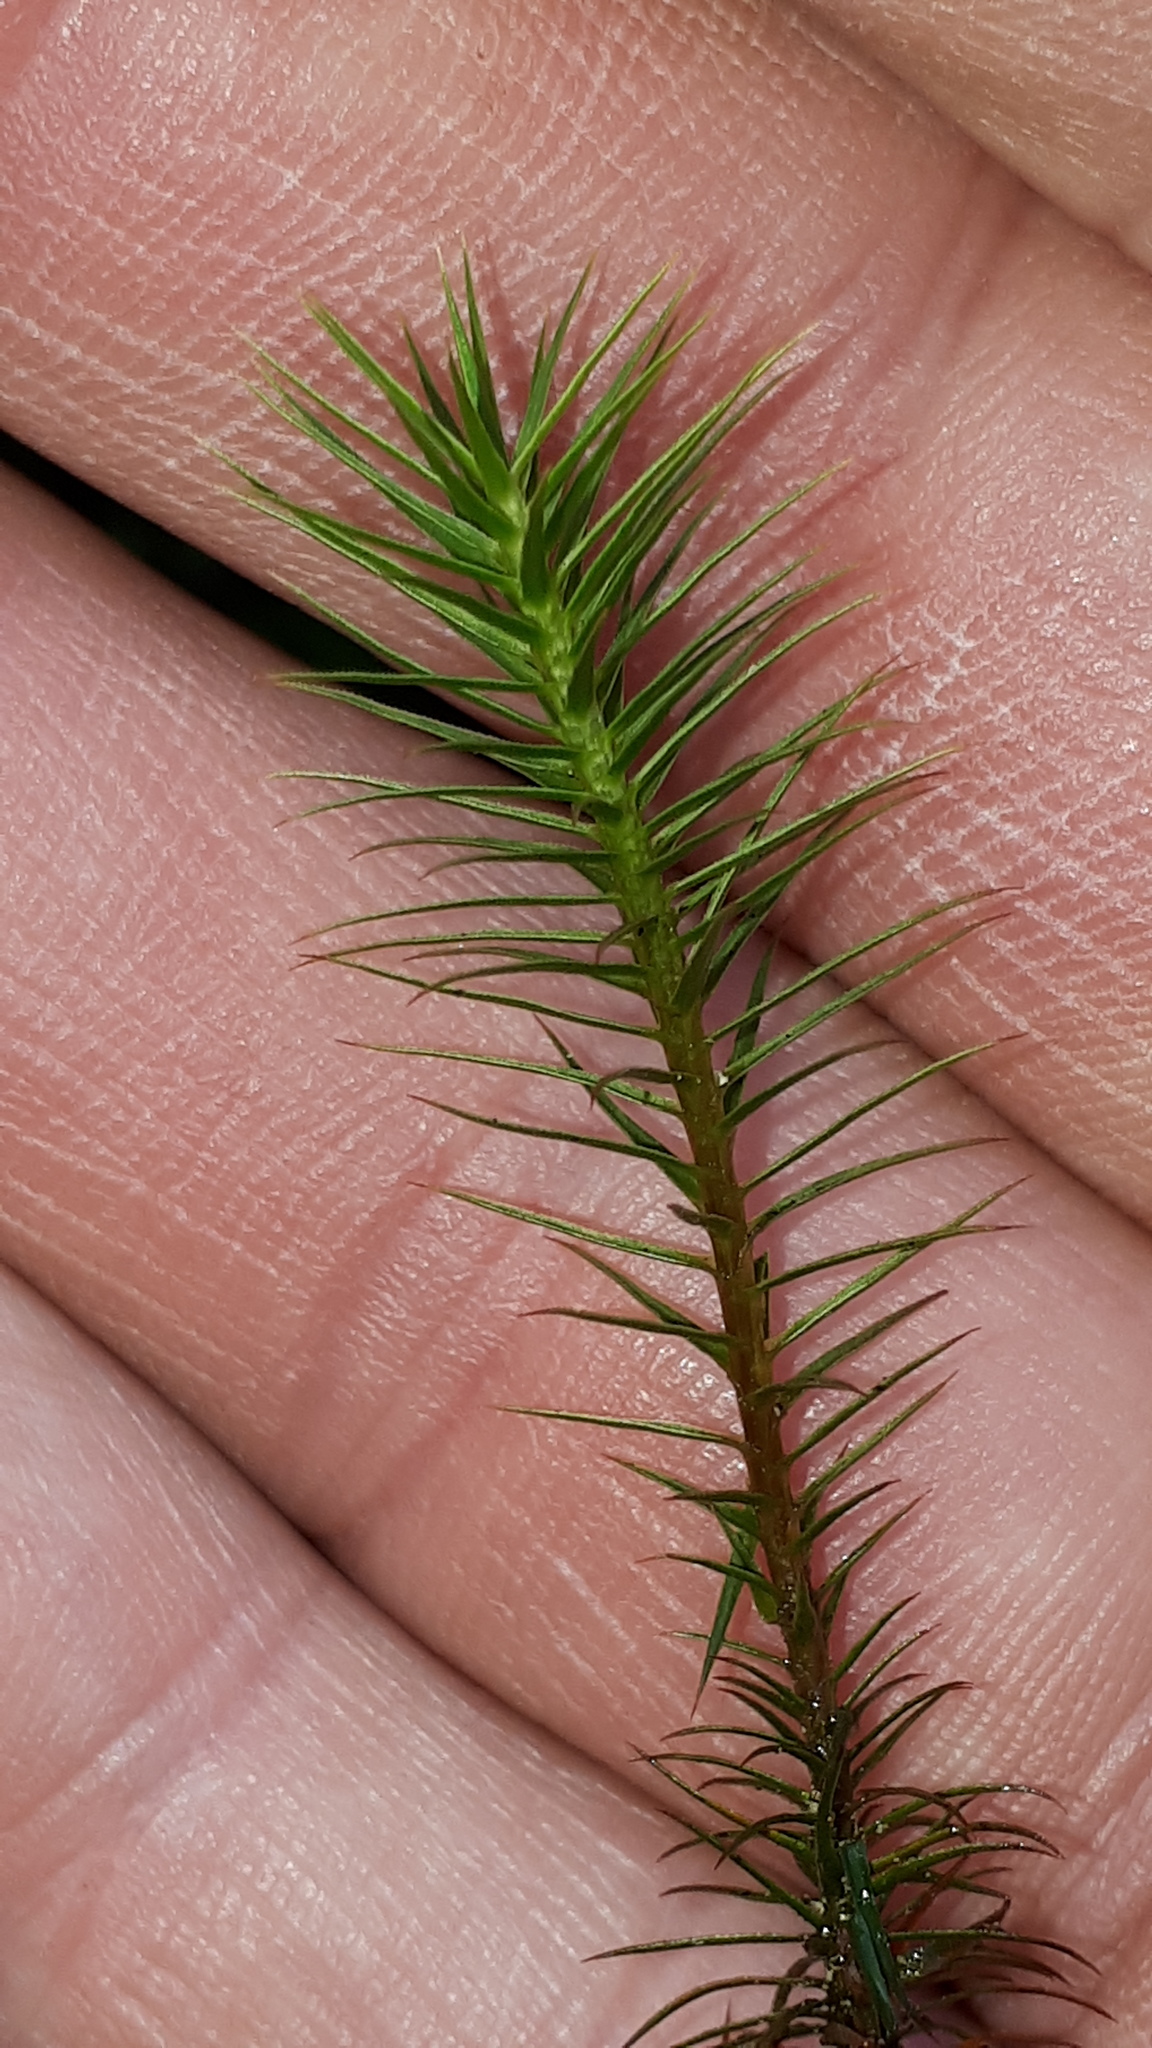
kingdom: Plantae
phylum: Bryophyta
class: Polytrichopsida
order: Polytrichales
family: Polytrichaceae
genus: Polytrichum
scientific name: Polytrichum commune
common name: Common haircap
